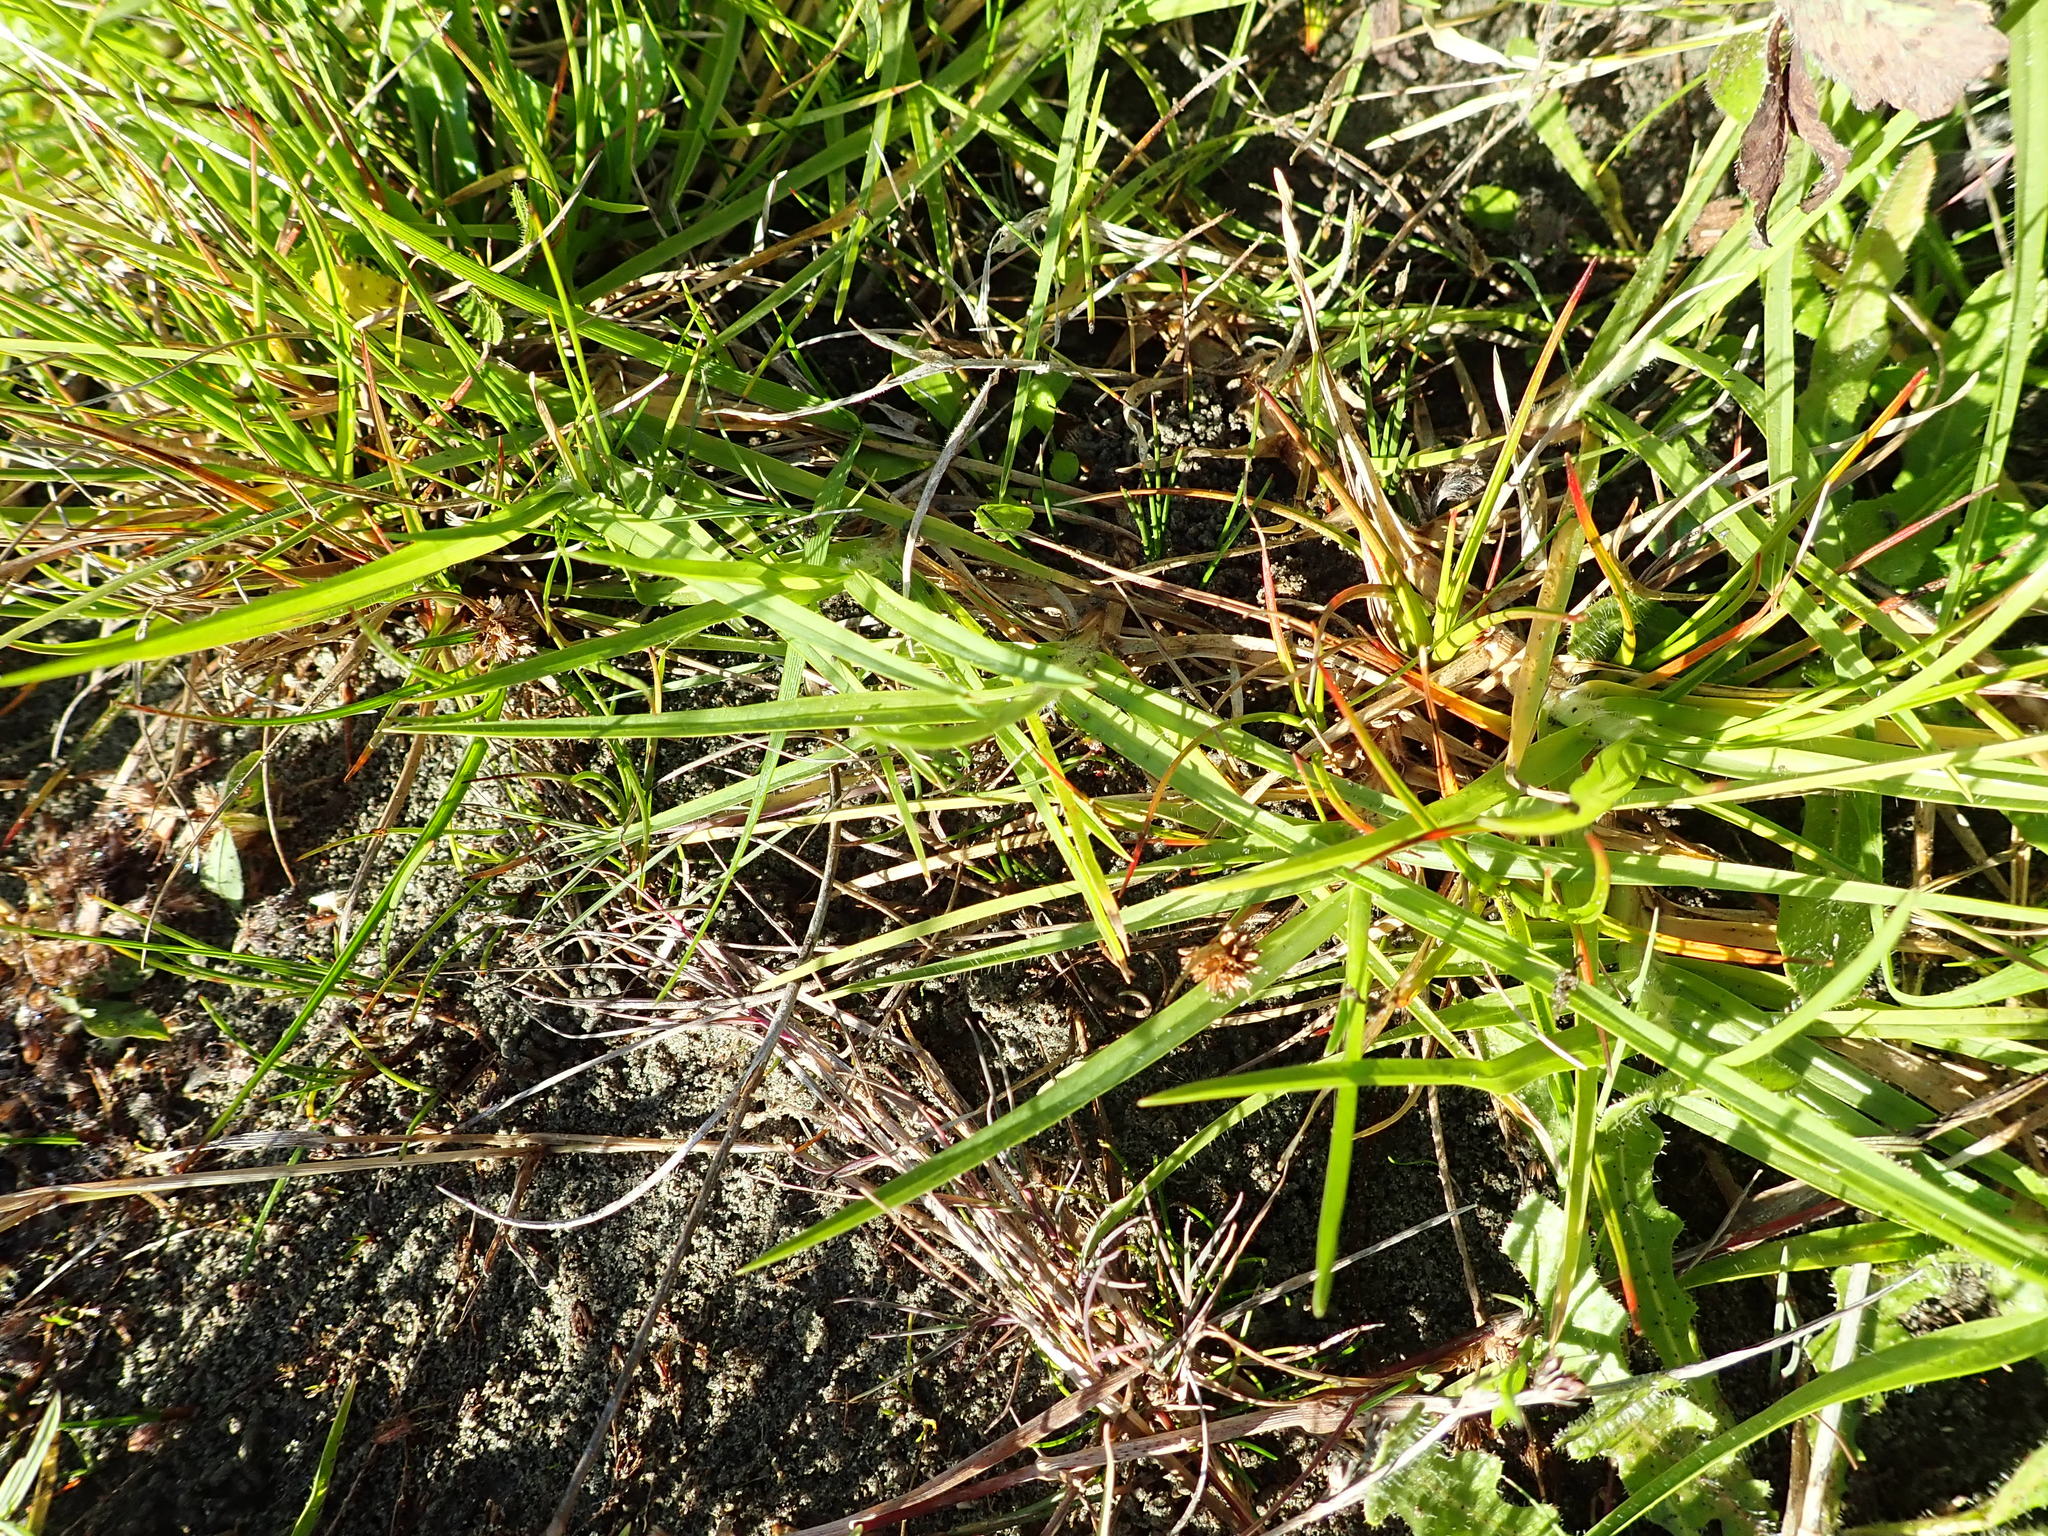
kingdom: Plantae
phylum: Tracheophyta
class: Liliopsida
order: Poales
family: Juncaceae
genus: Juncus
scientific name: Juncus caespiticius
